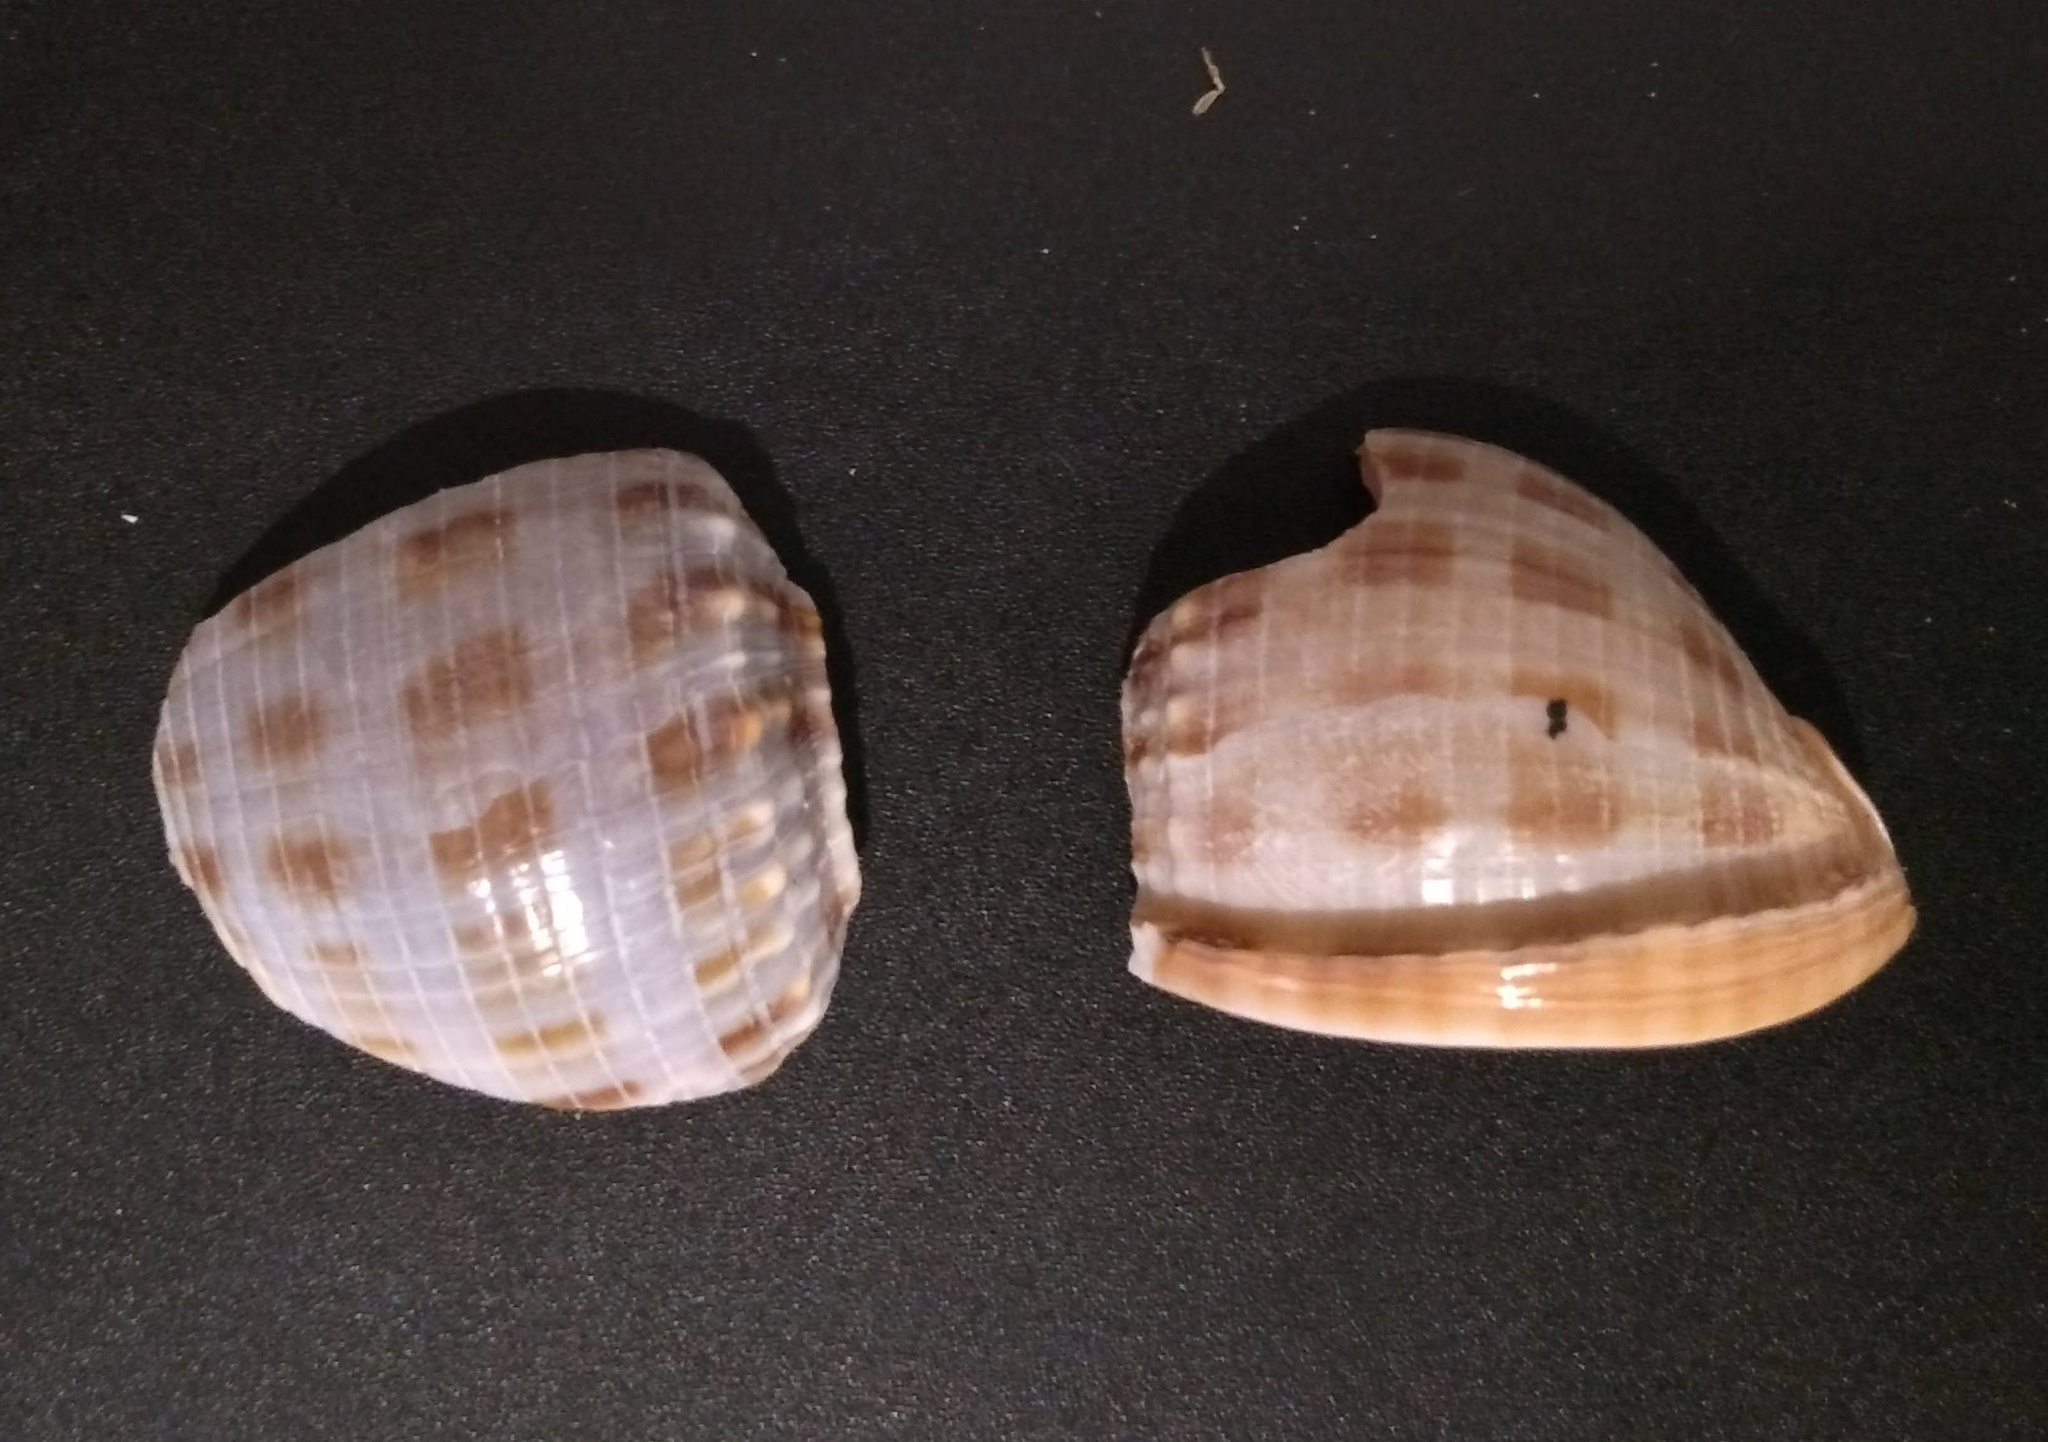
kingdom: Animalia
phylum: Mollusca
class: Gastropoda
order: Littorinimorpha
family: Cassidae
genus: Semicassis
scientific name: Semicassis granulata
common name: Scotch bonnet
